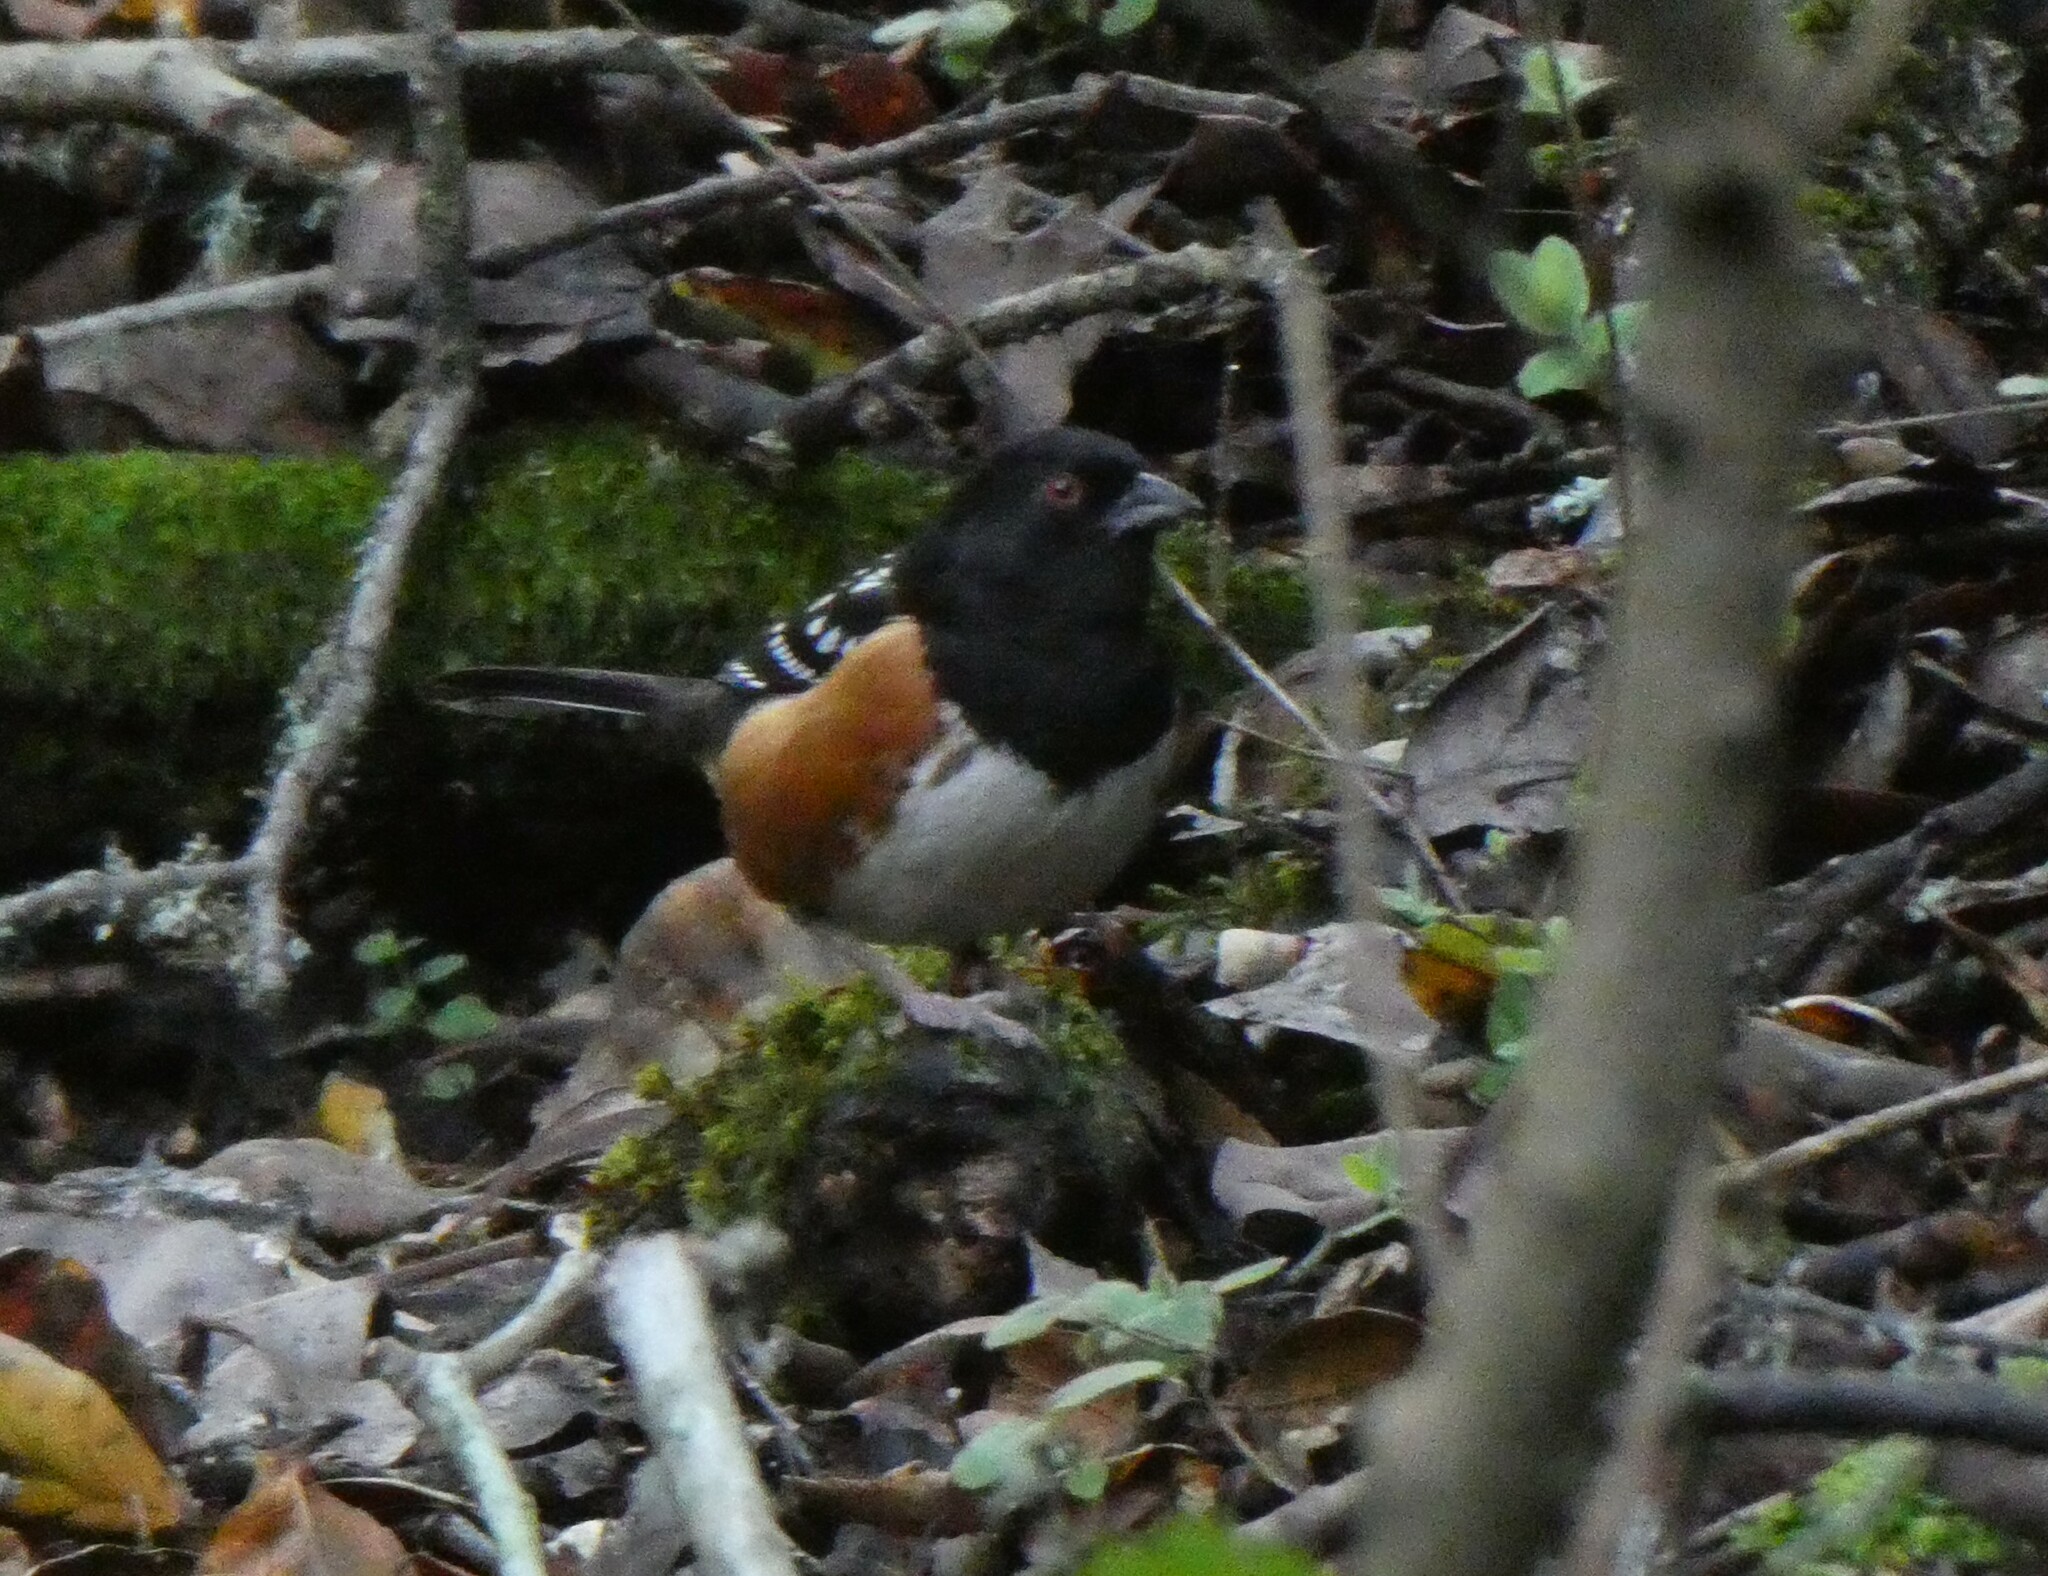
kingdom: Animalia
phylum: Chordata
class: Aves
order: Passeriformes
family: Passerellidae
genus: Pipilo
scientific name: Pipilo maculatus
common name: Spotted towhee
